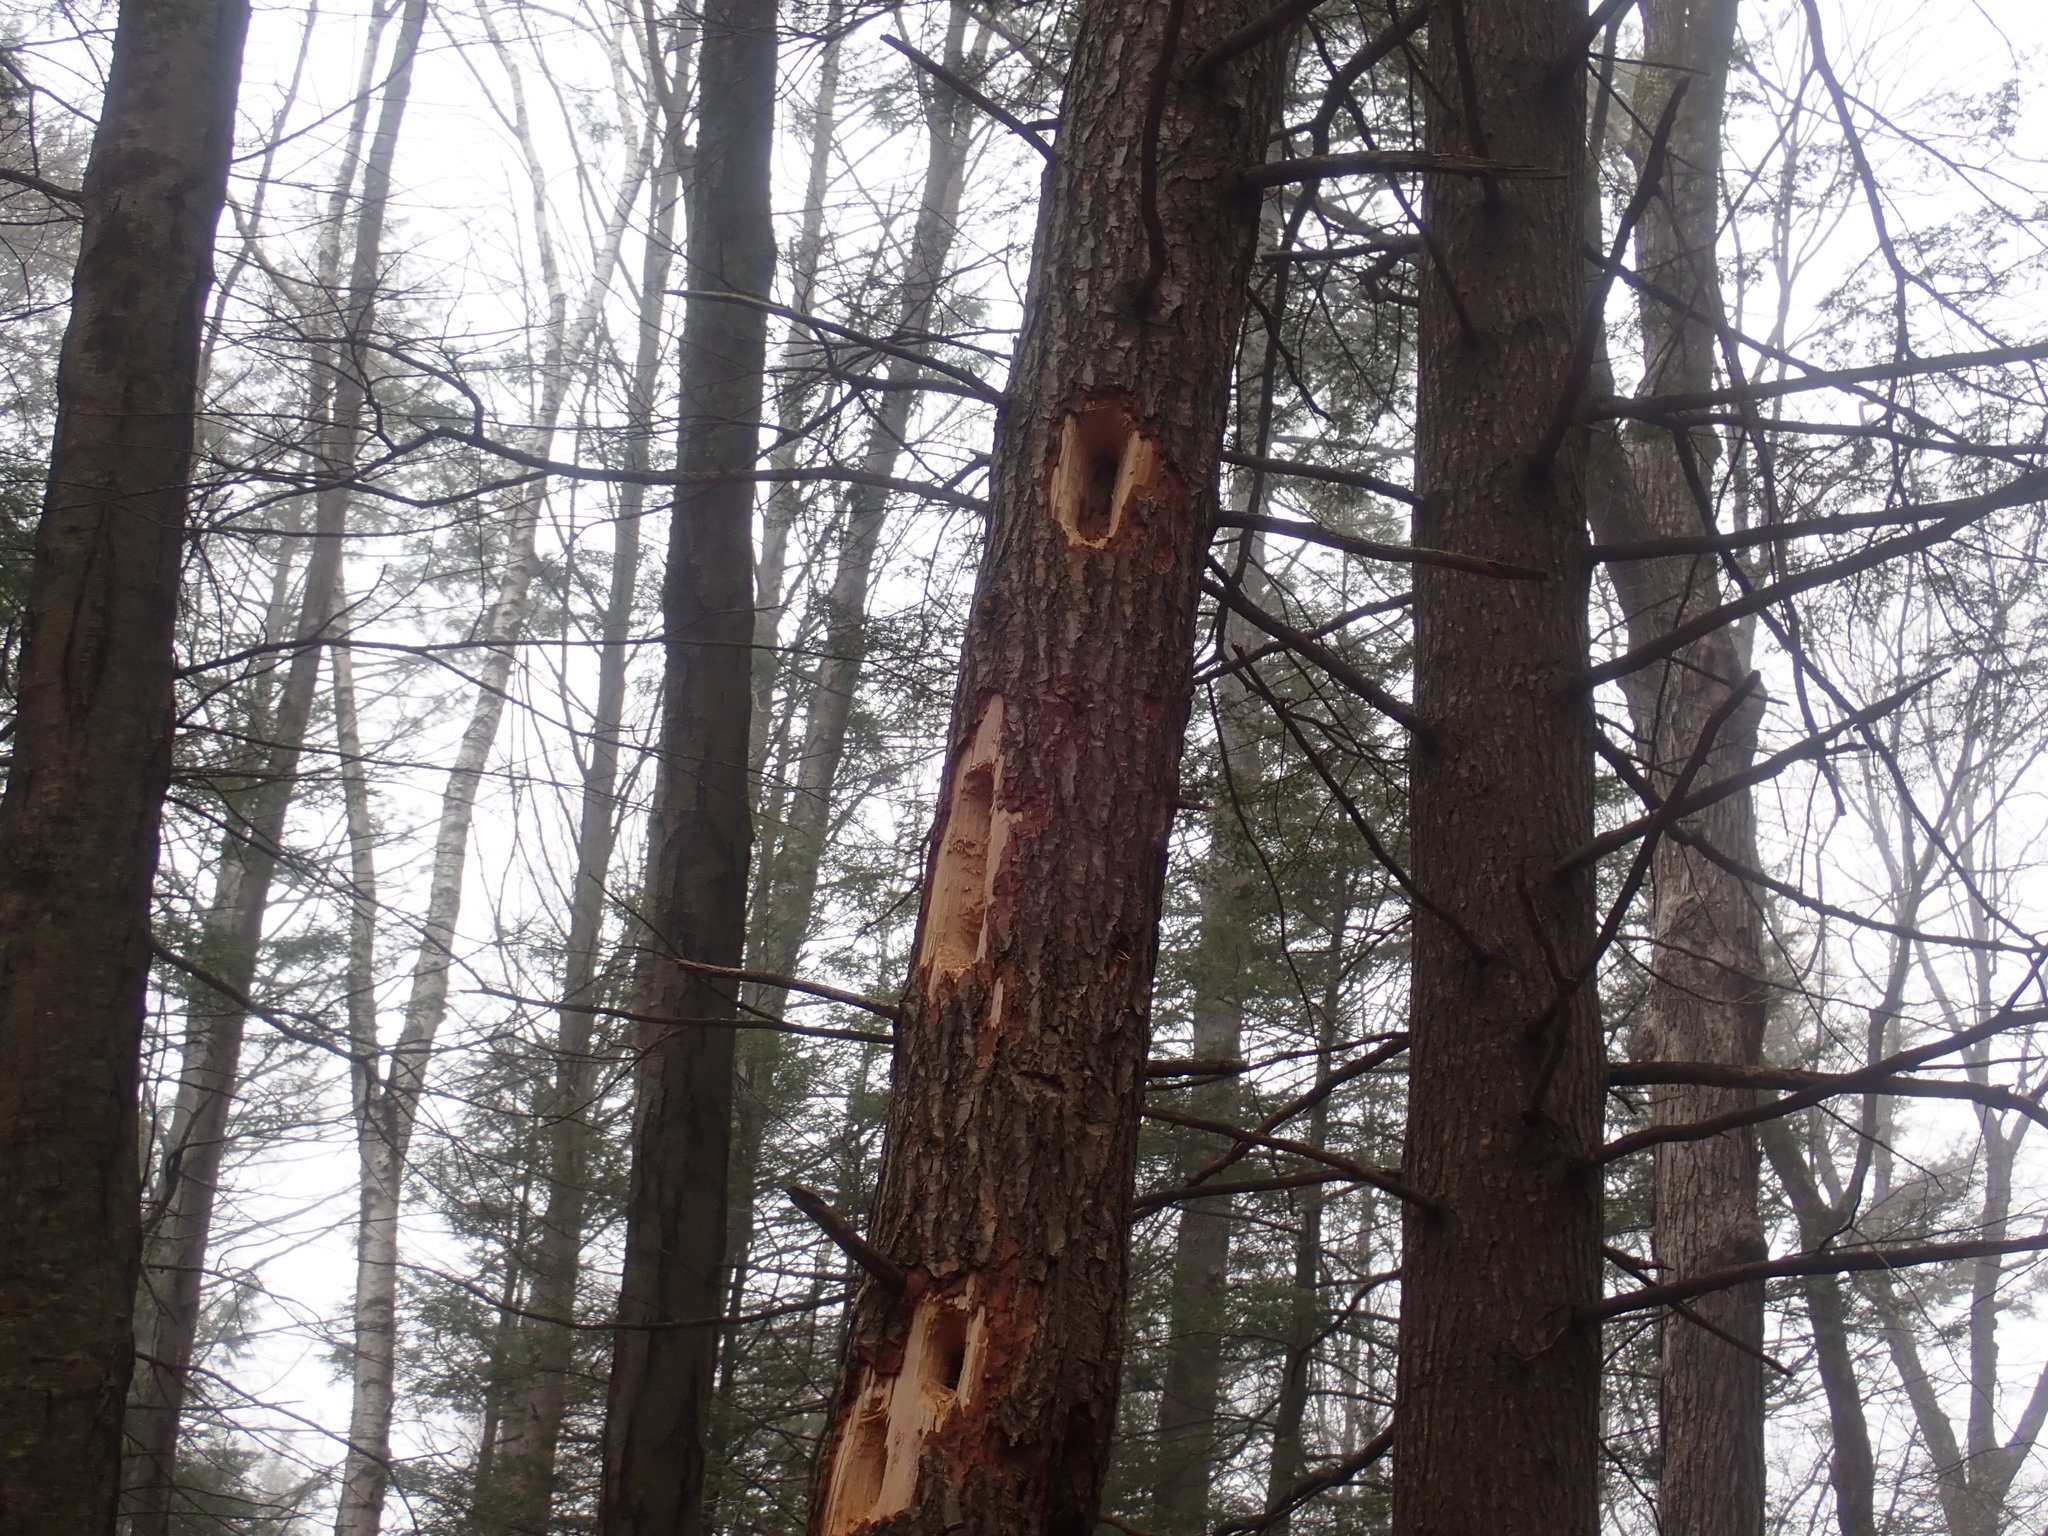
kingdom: Animalia
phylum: Chordata
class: Aves
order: Piciformes
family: Picidae
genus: Dryocopus
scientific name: Dryocopus pileatus
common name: Pileated woodpecker
